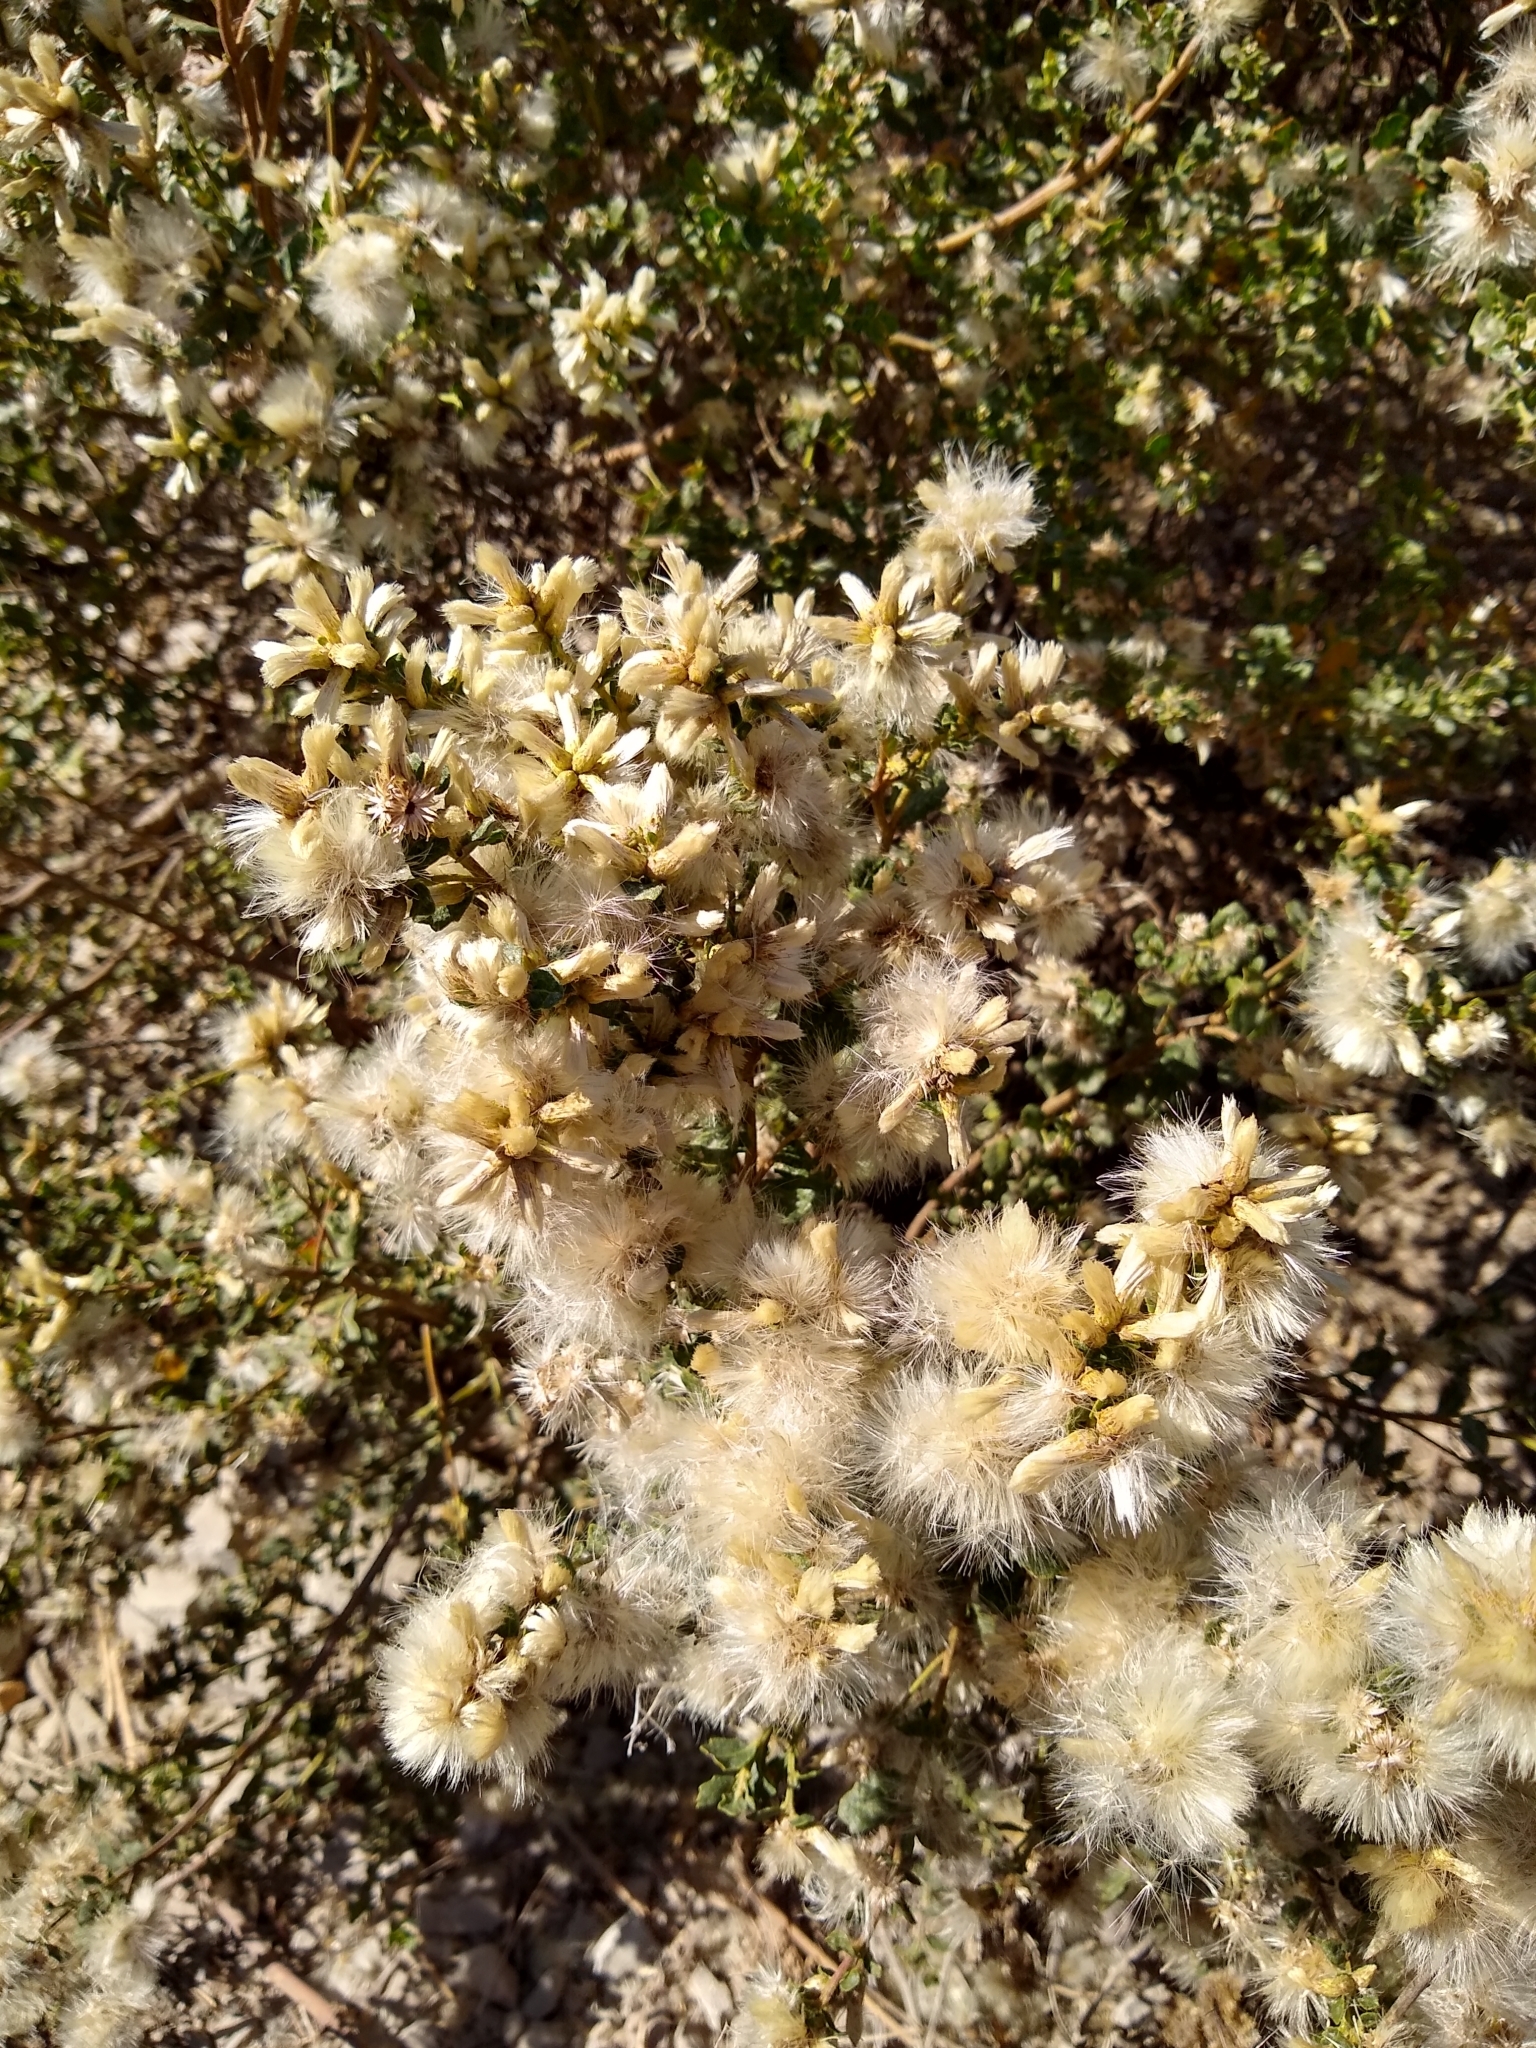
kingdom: Plantae
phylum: Tracheophyta
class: Magnoliopsida
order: Asterales
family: Asteraceae
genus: Baccharis
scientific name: Baccharis pilularis
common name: Coyotebrush
